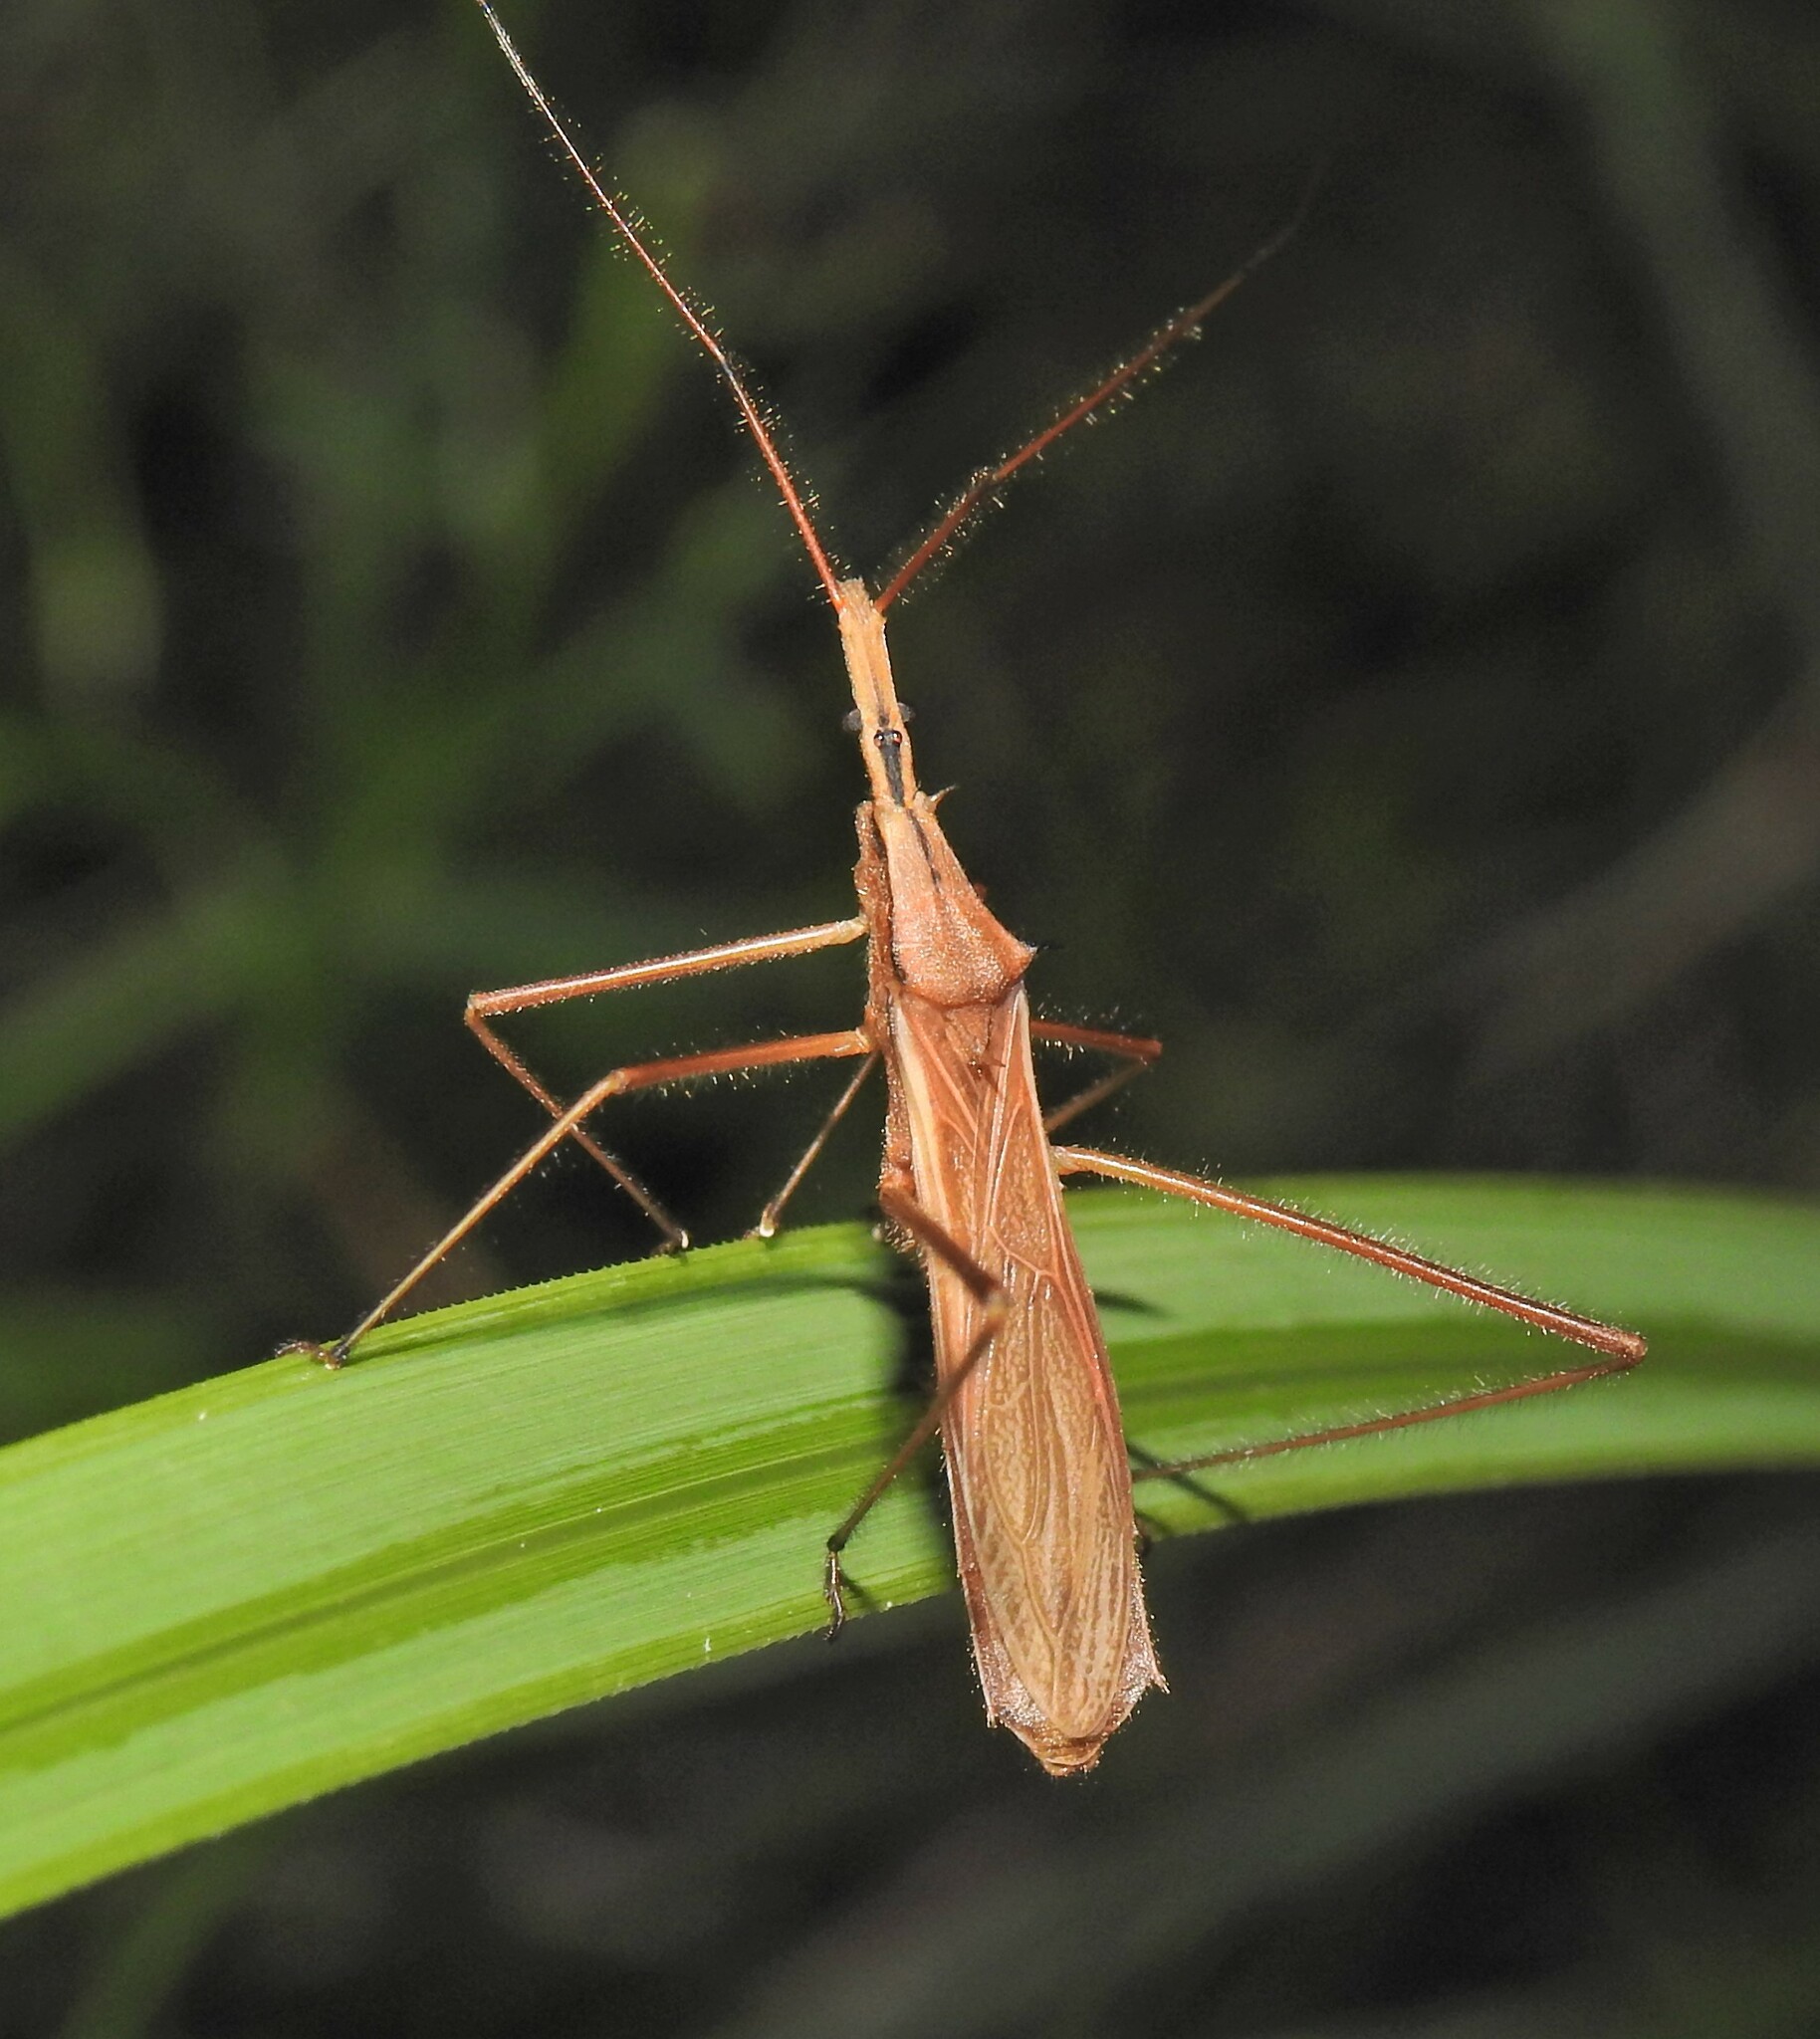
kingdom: Animalia
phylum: Arthropoda
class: Insecta
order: Hemiptera
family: Reduviidae
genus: Thodelmus
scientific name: Thodelmus impicticornis
